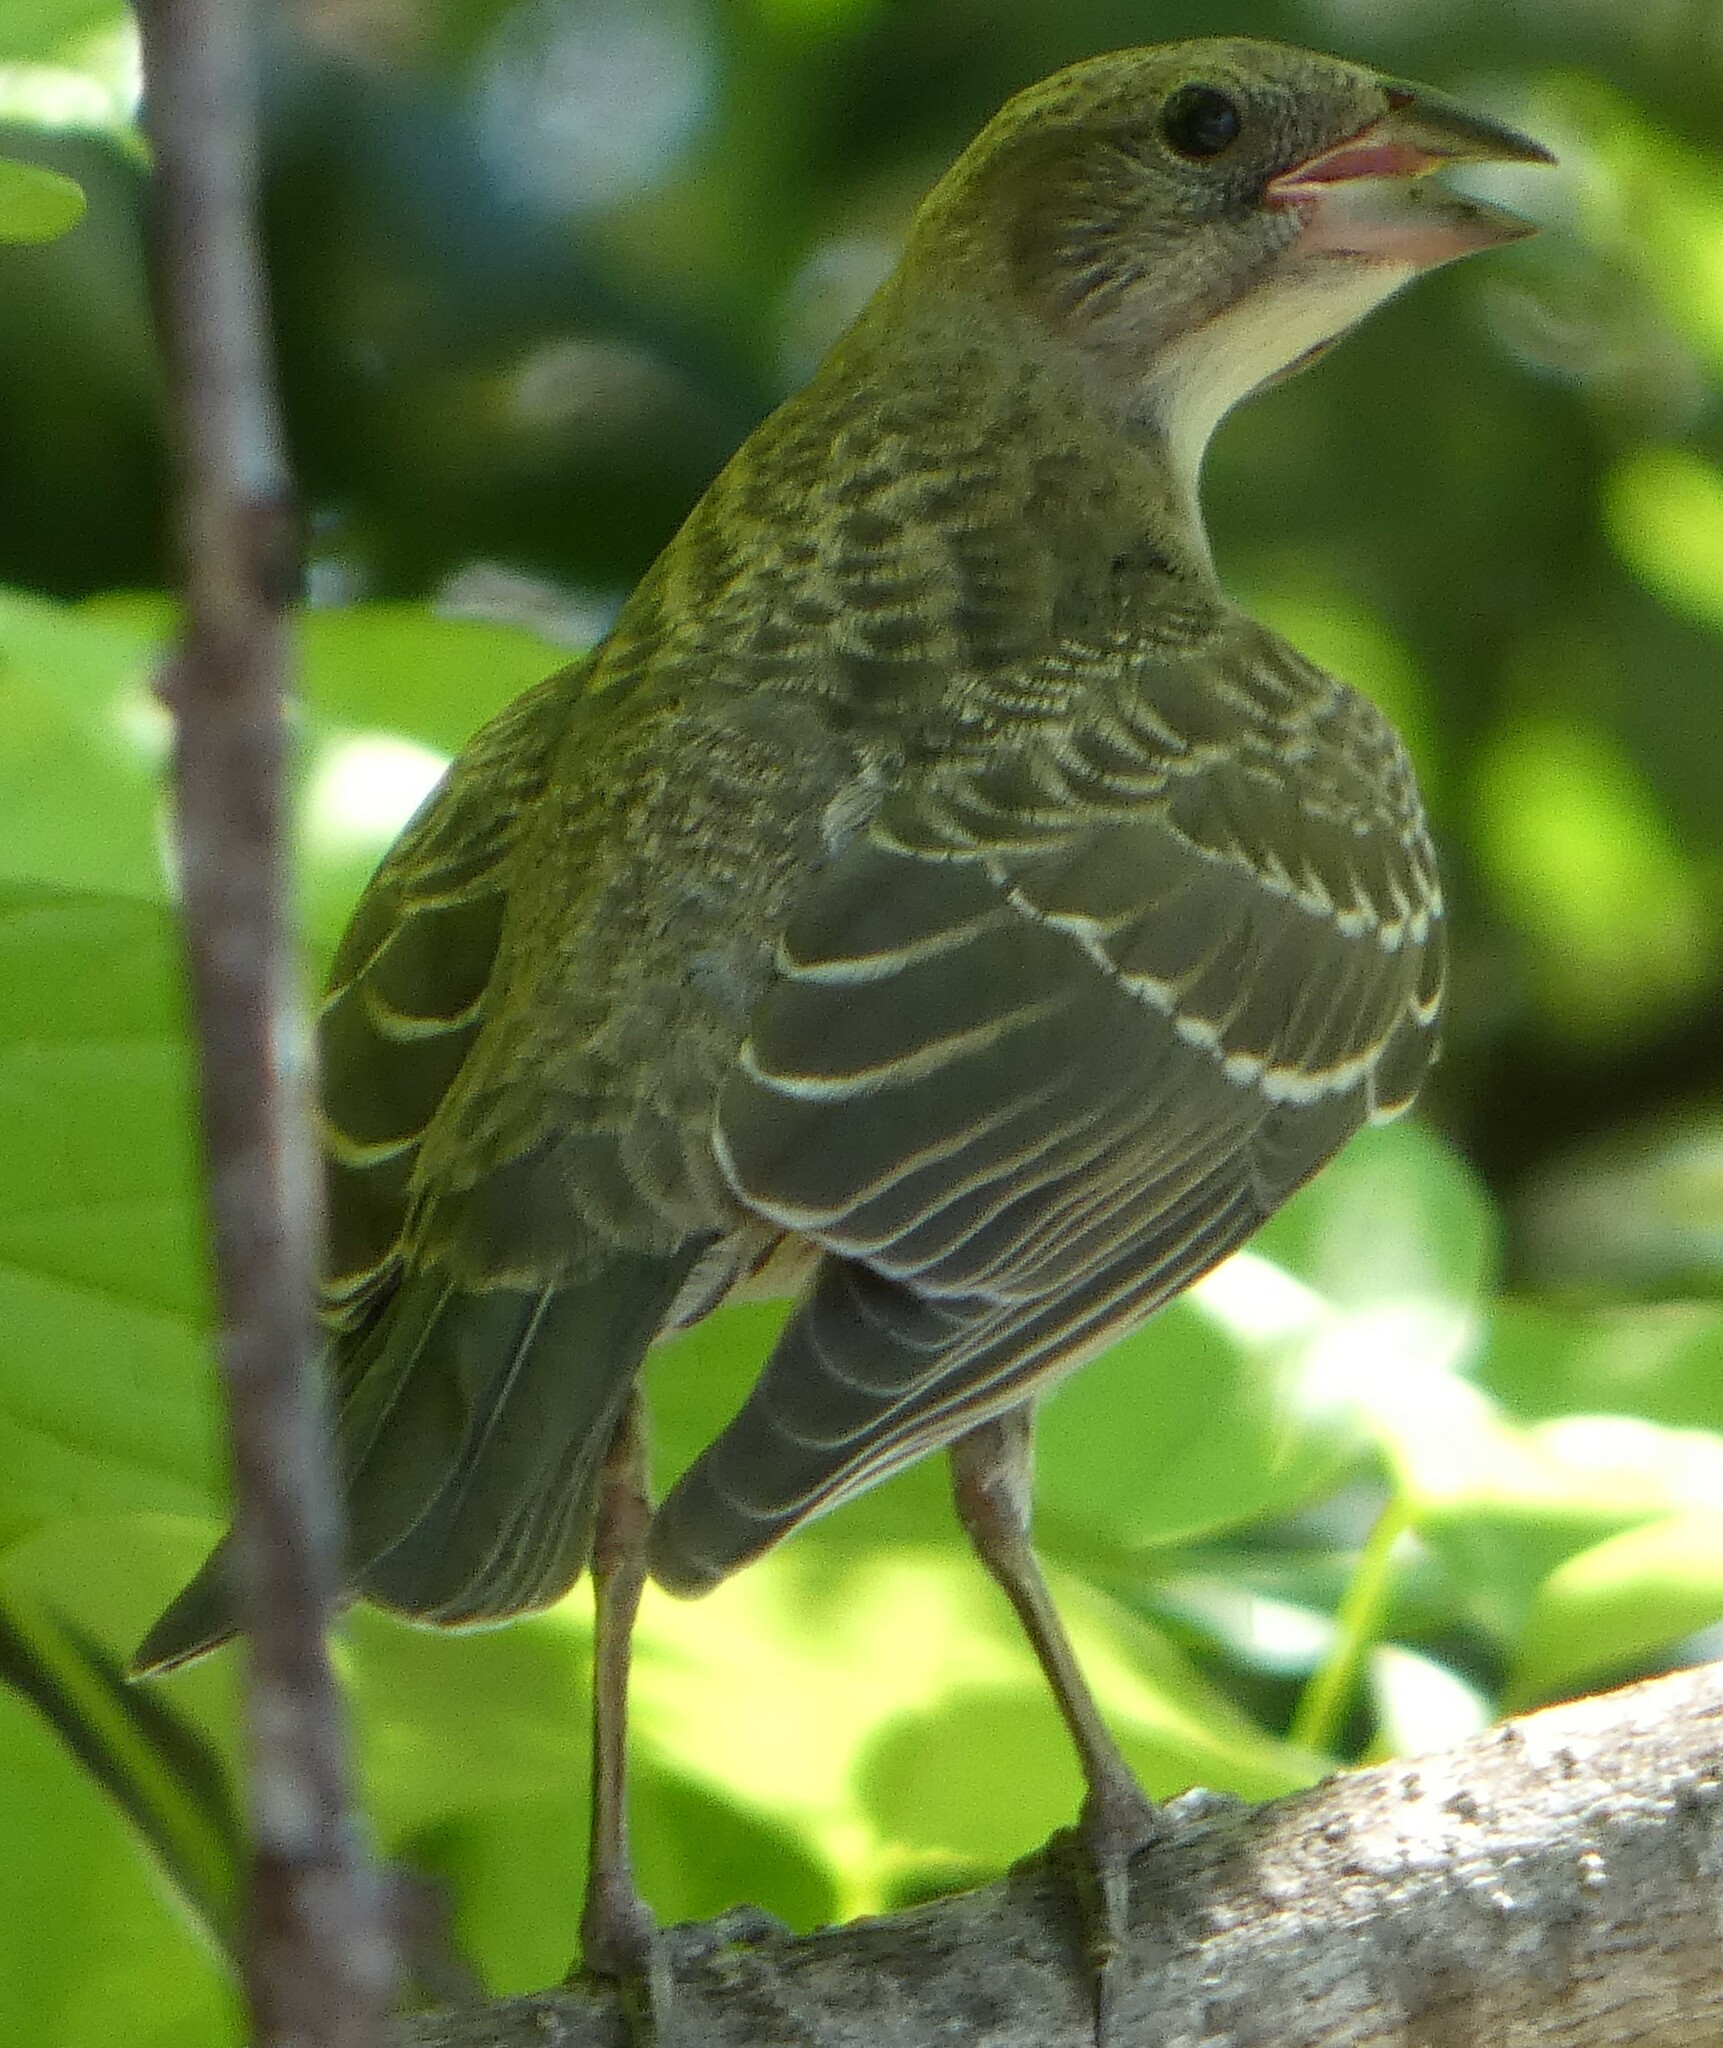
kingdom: Animalia
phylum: Chordata
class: Aves
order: Passeriformes
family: Icteridae
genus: Molothrus
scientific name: Molothrus ater
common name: Brown-headed cowbird
